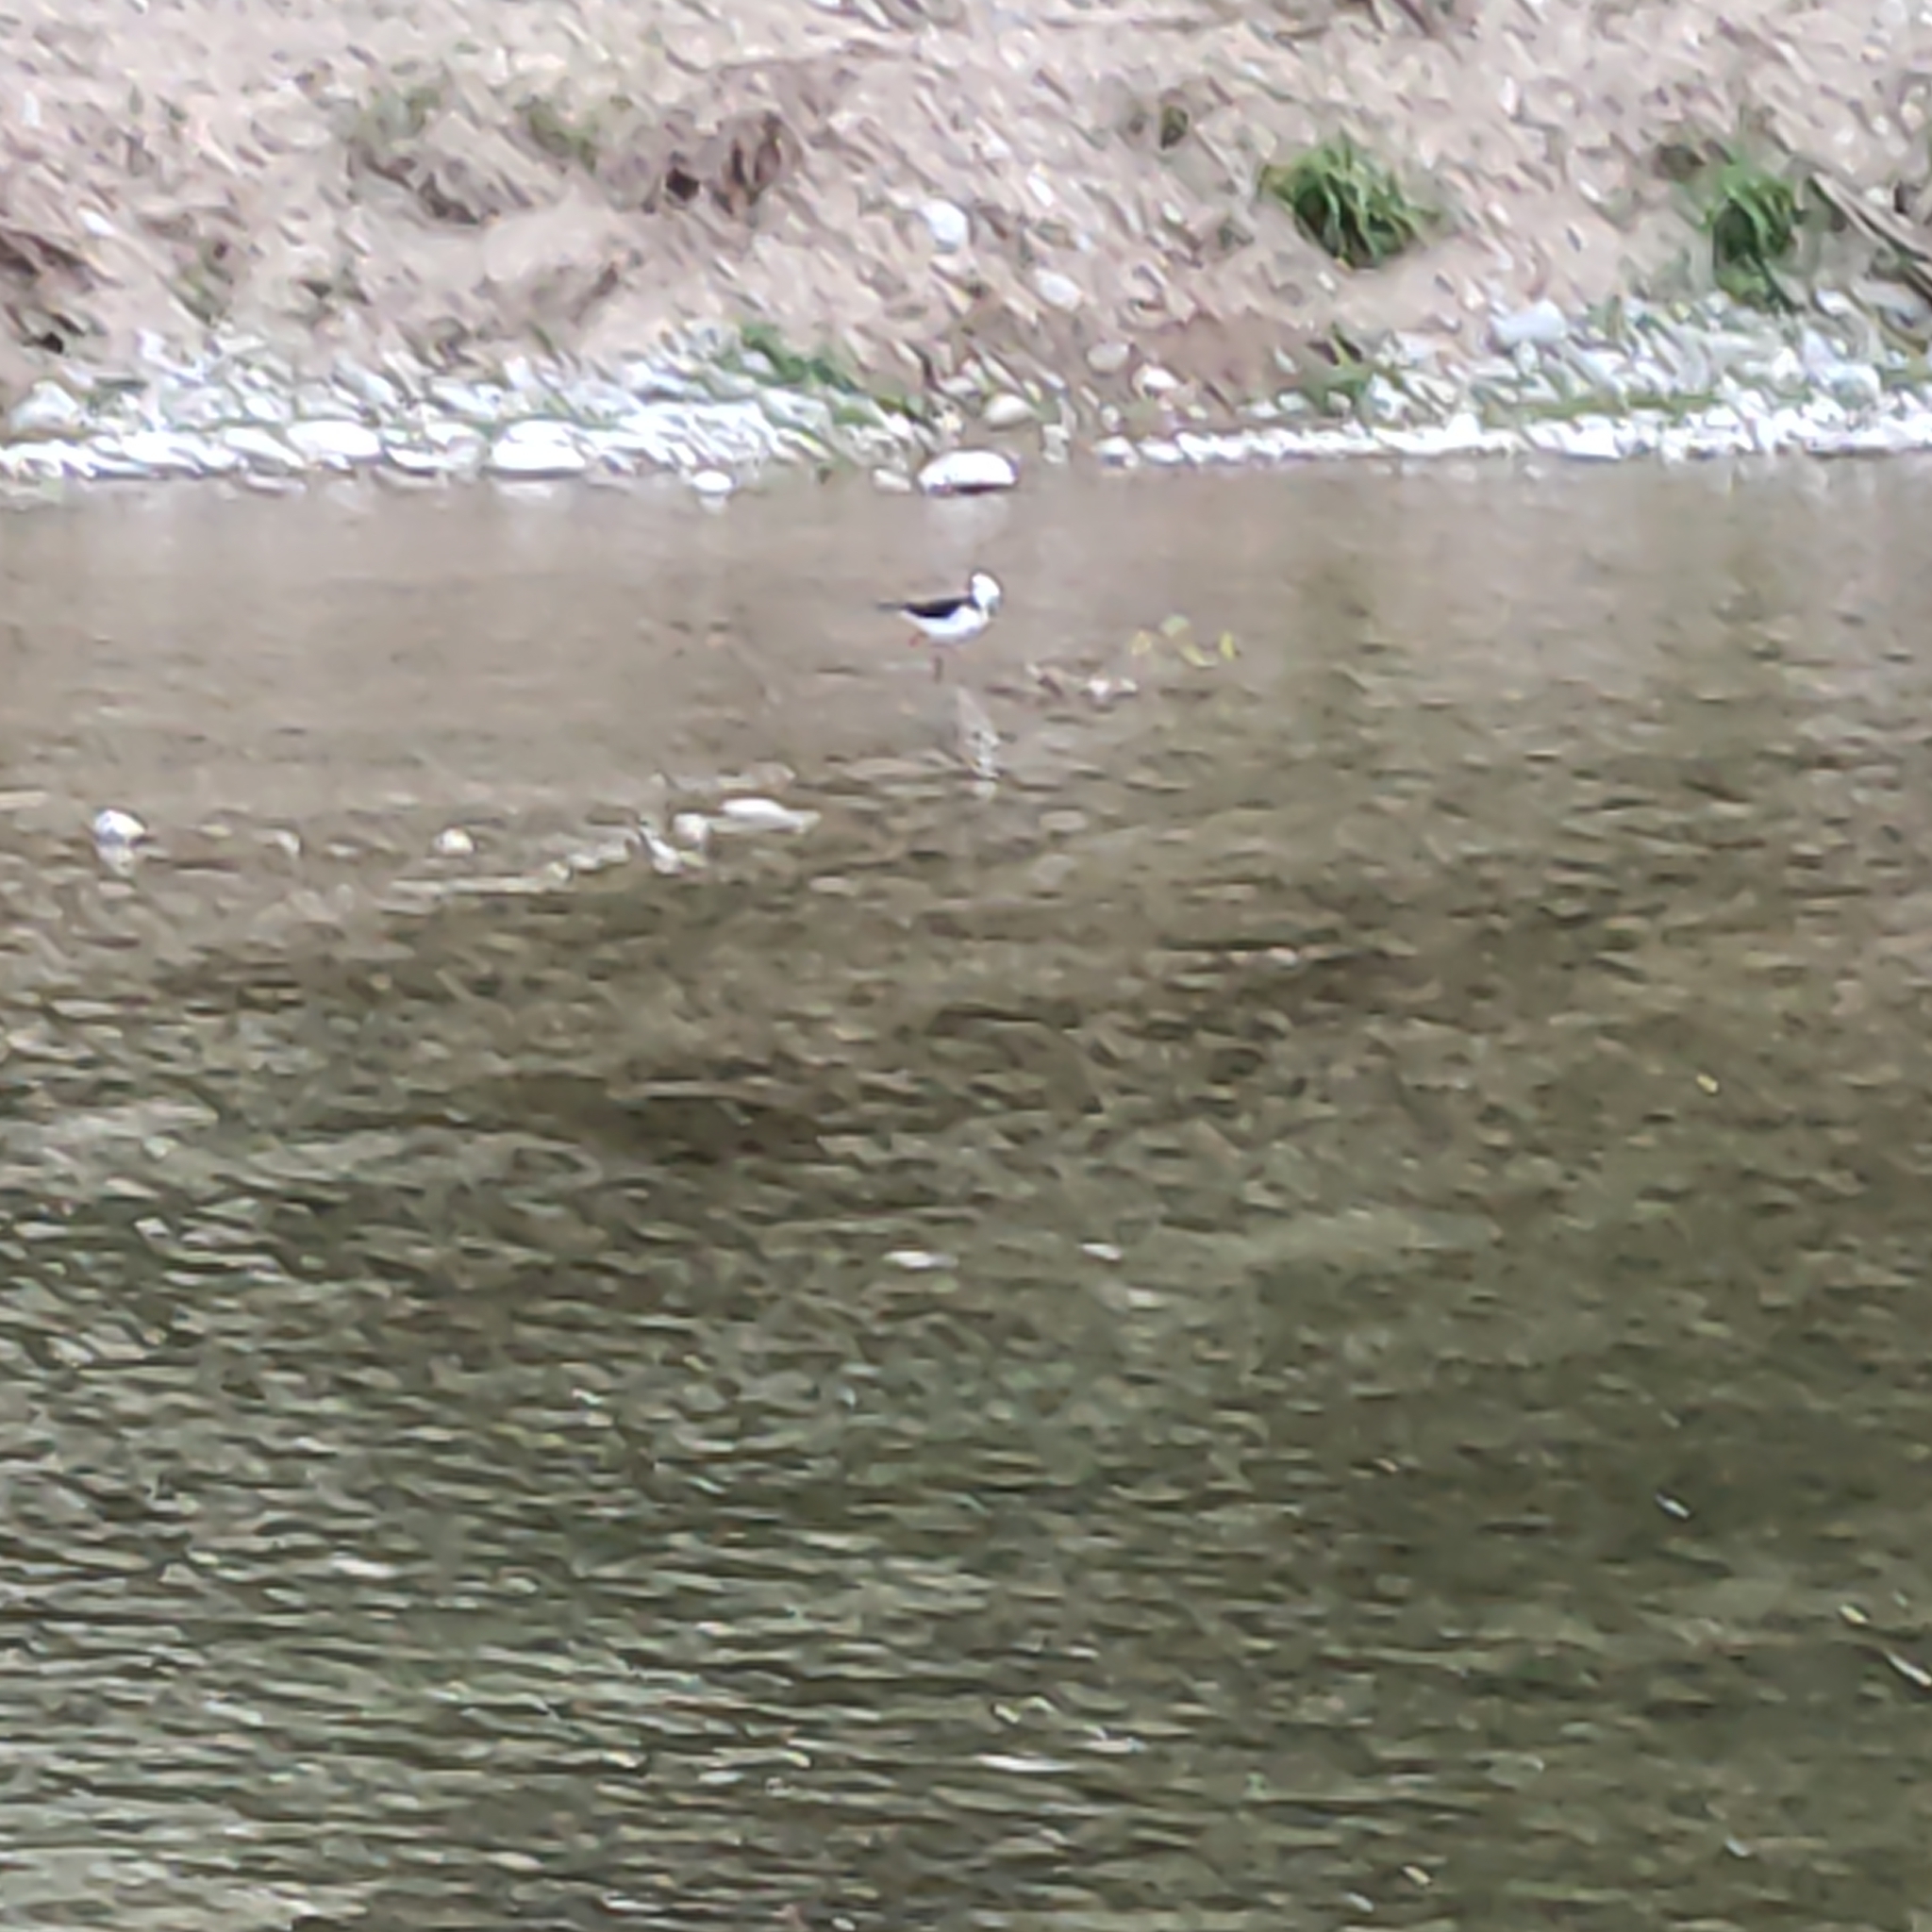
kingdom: Animalia
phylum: Chordata
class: Aves
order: Charadriiformes
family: Recurvirostridae
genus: Himantopus
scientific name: Himantopus leucocephalus
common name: White-headed stilt
